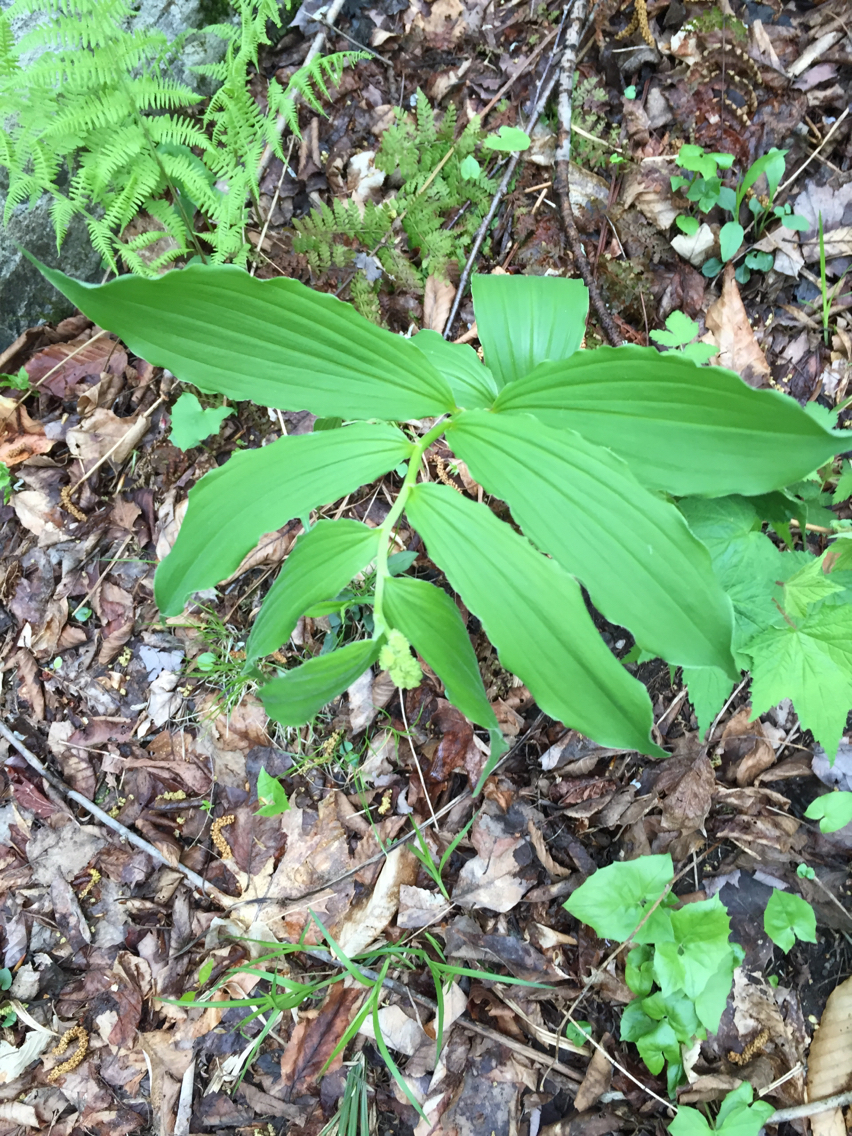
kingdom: Plantae
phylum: Tracheophyta
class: Liliopsida
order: Asparagales
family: Asparagaceae
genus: Maianthemum
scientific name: Maianthemum racemosum
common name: False spikenard
